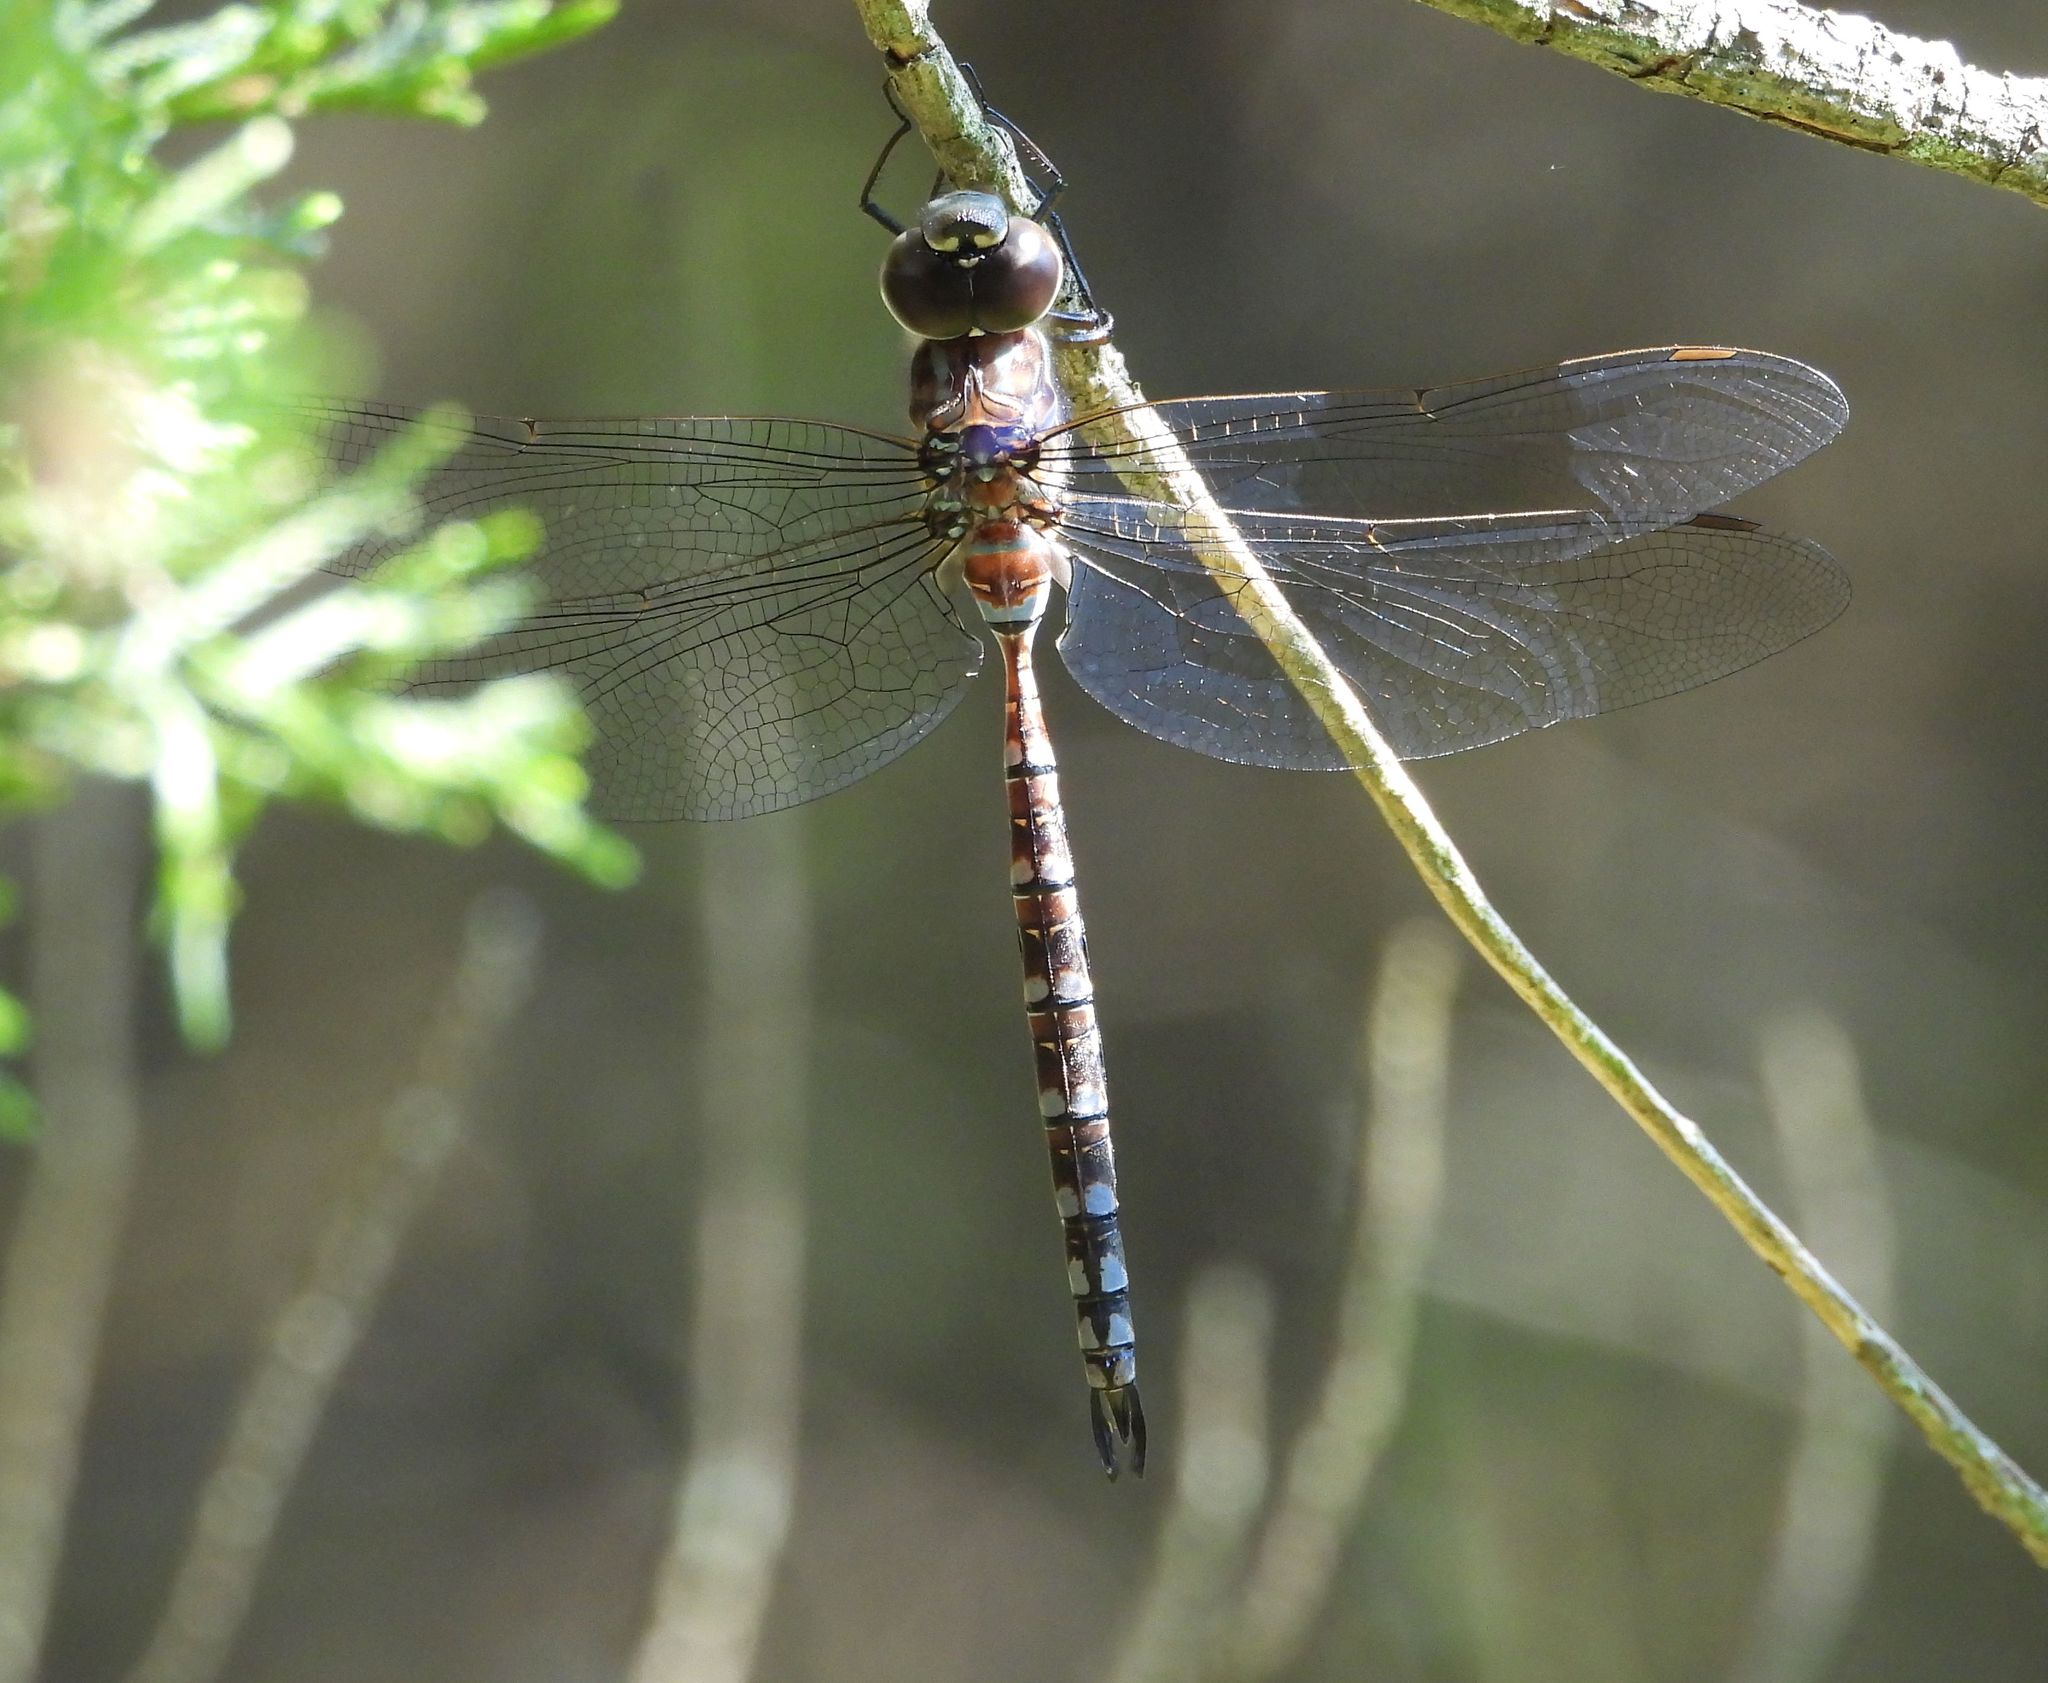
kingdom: Animalia
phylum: Arthropoda
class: Insecta
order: Odonata
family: Aeshnidae
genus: Aeshna
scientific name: Aeshna canadensis
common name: Canada darner
